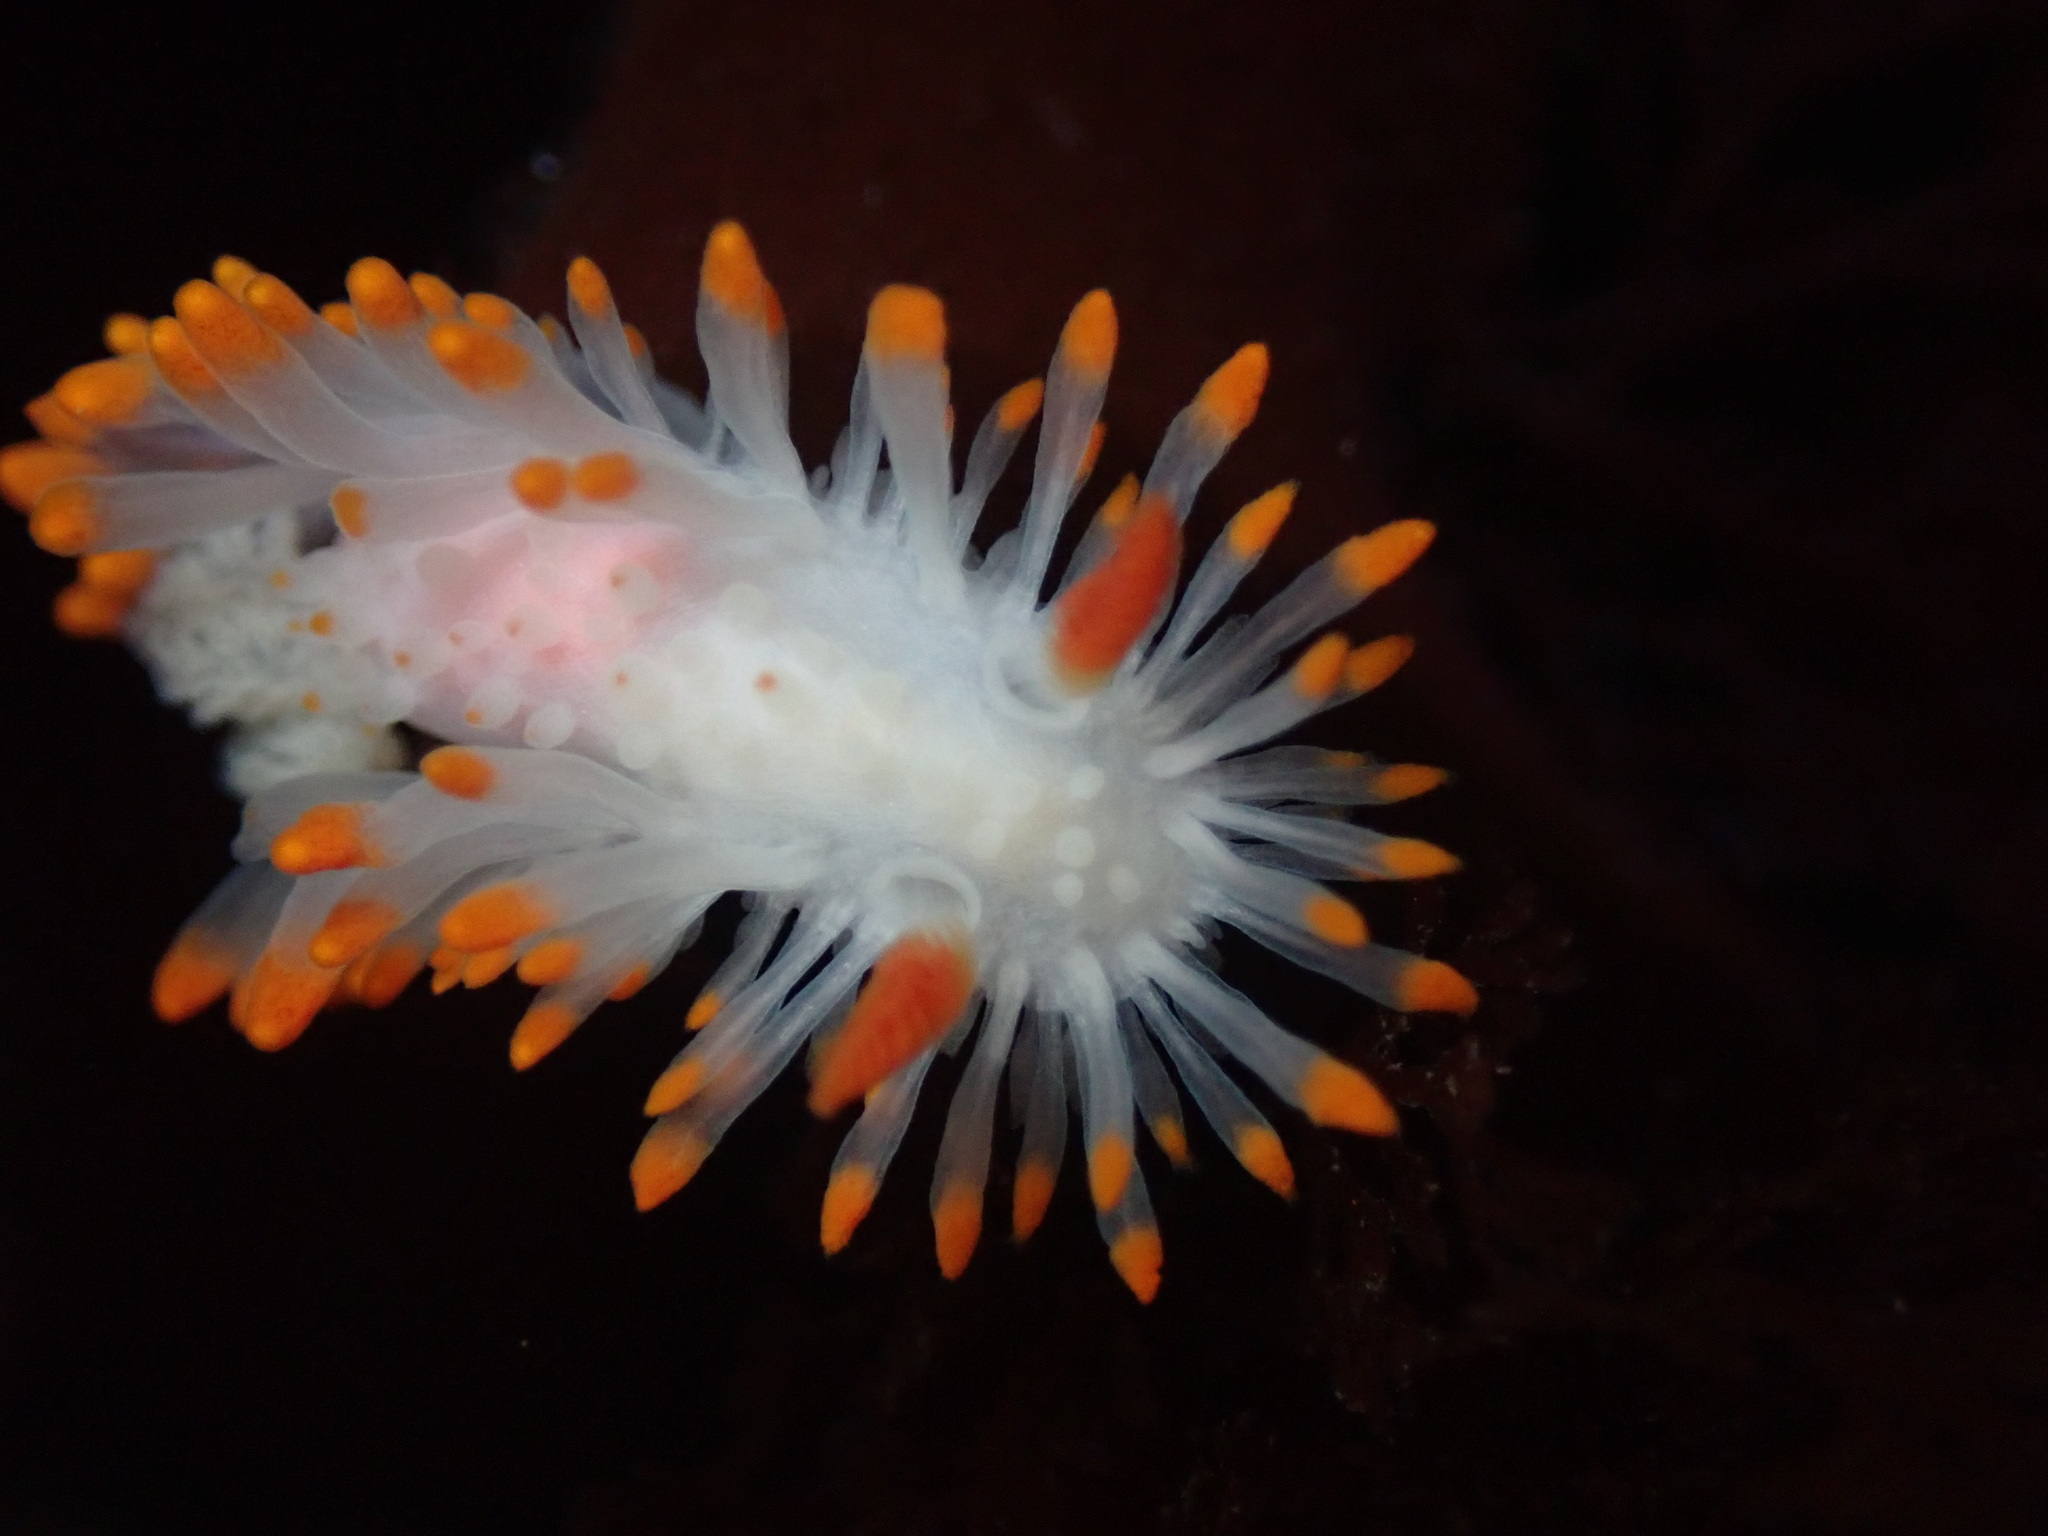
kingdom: Animalia
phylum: Mollusca
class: Gastropoda
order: Nudibranchia
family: Polyceridae
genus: Limacia
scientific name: Limacia cockerelli
